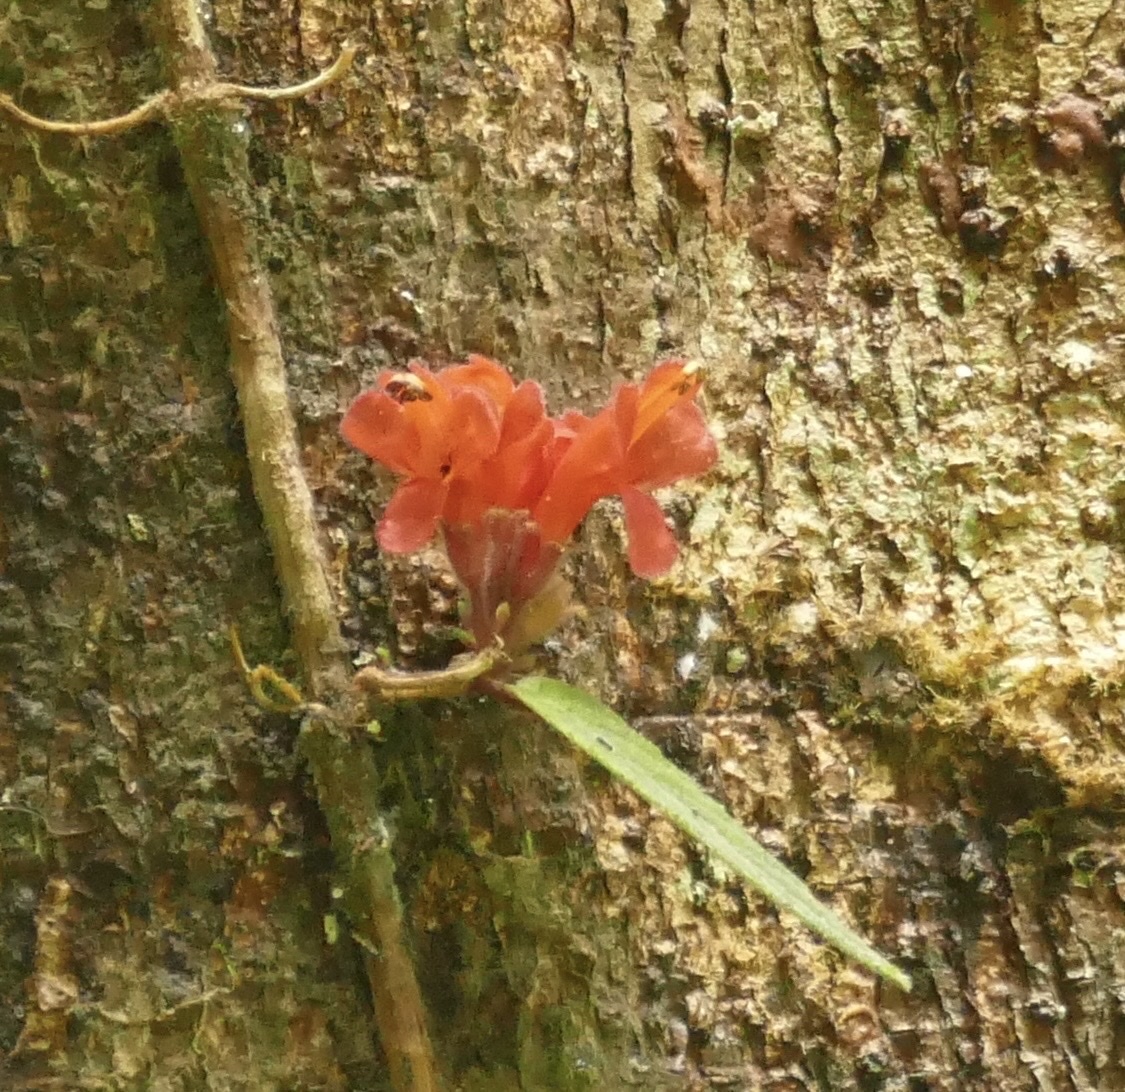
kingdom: Plantae
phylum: Tracheophyta
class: Magnoliopsida
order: Lamiales
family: Gesneriaceae
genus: Agalmyla
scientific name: Agalmyla brevipes
